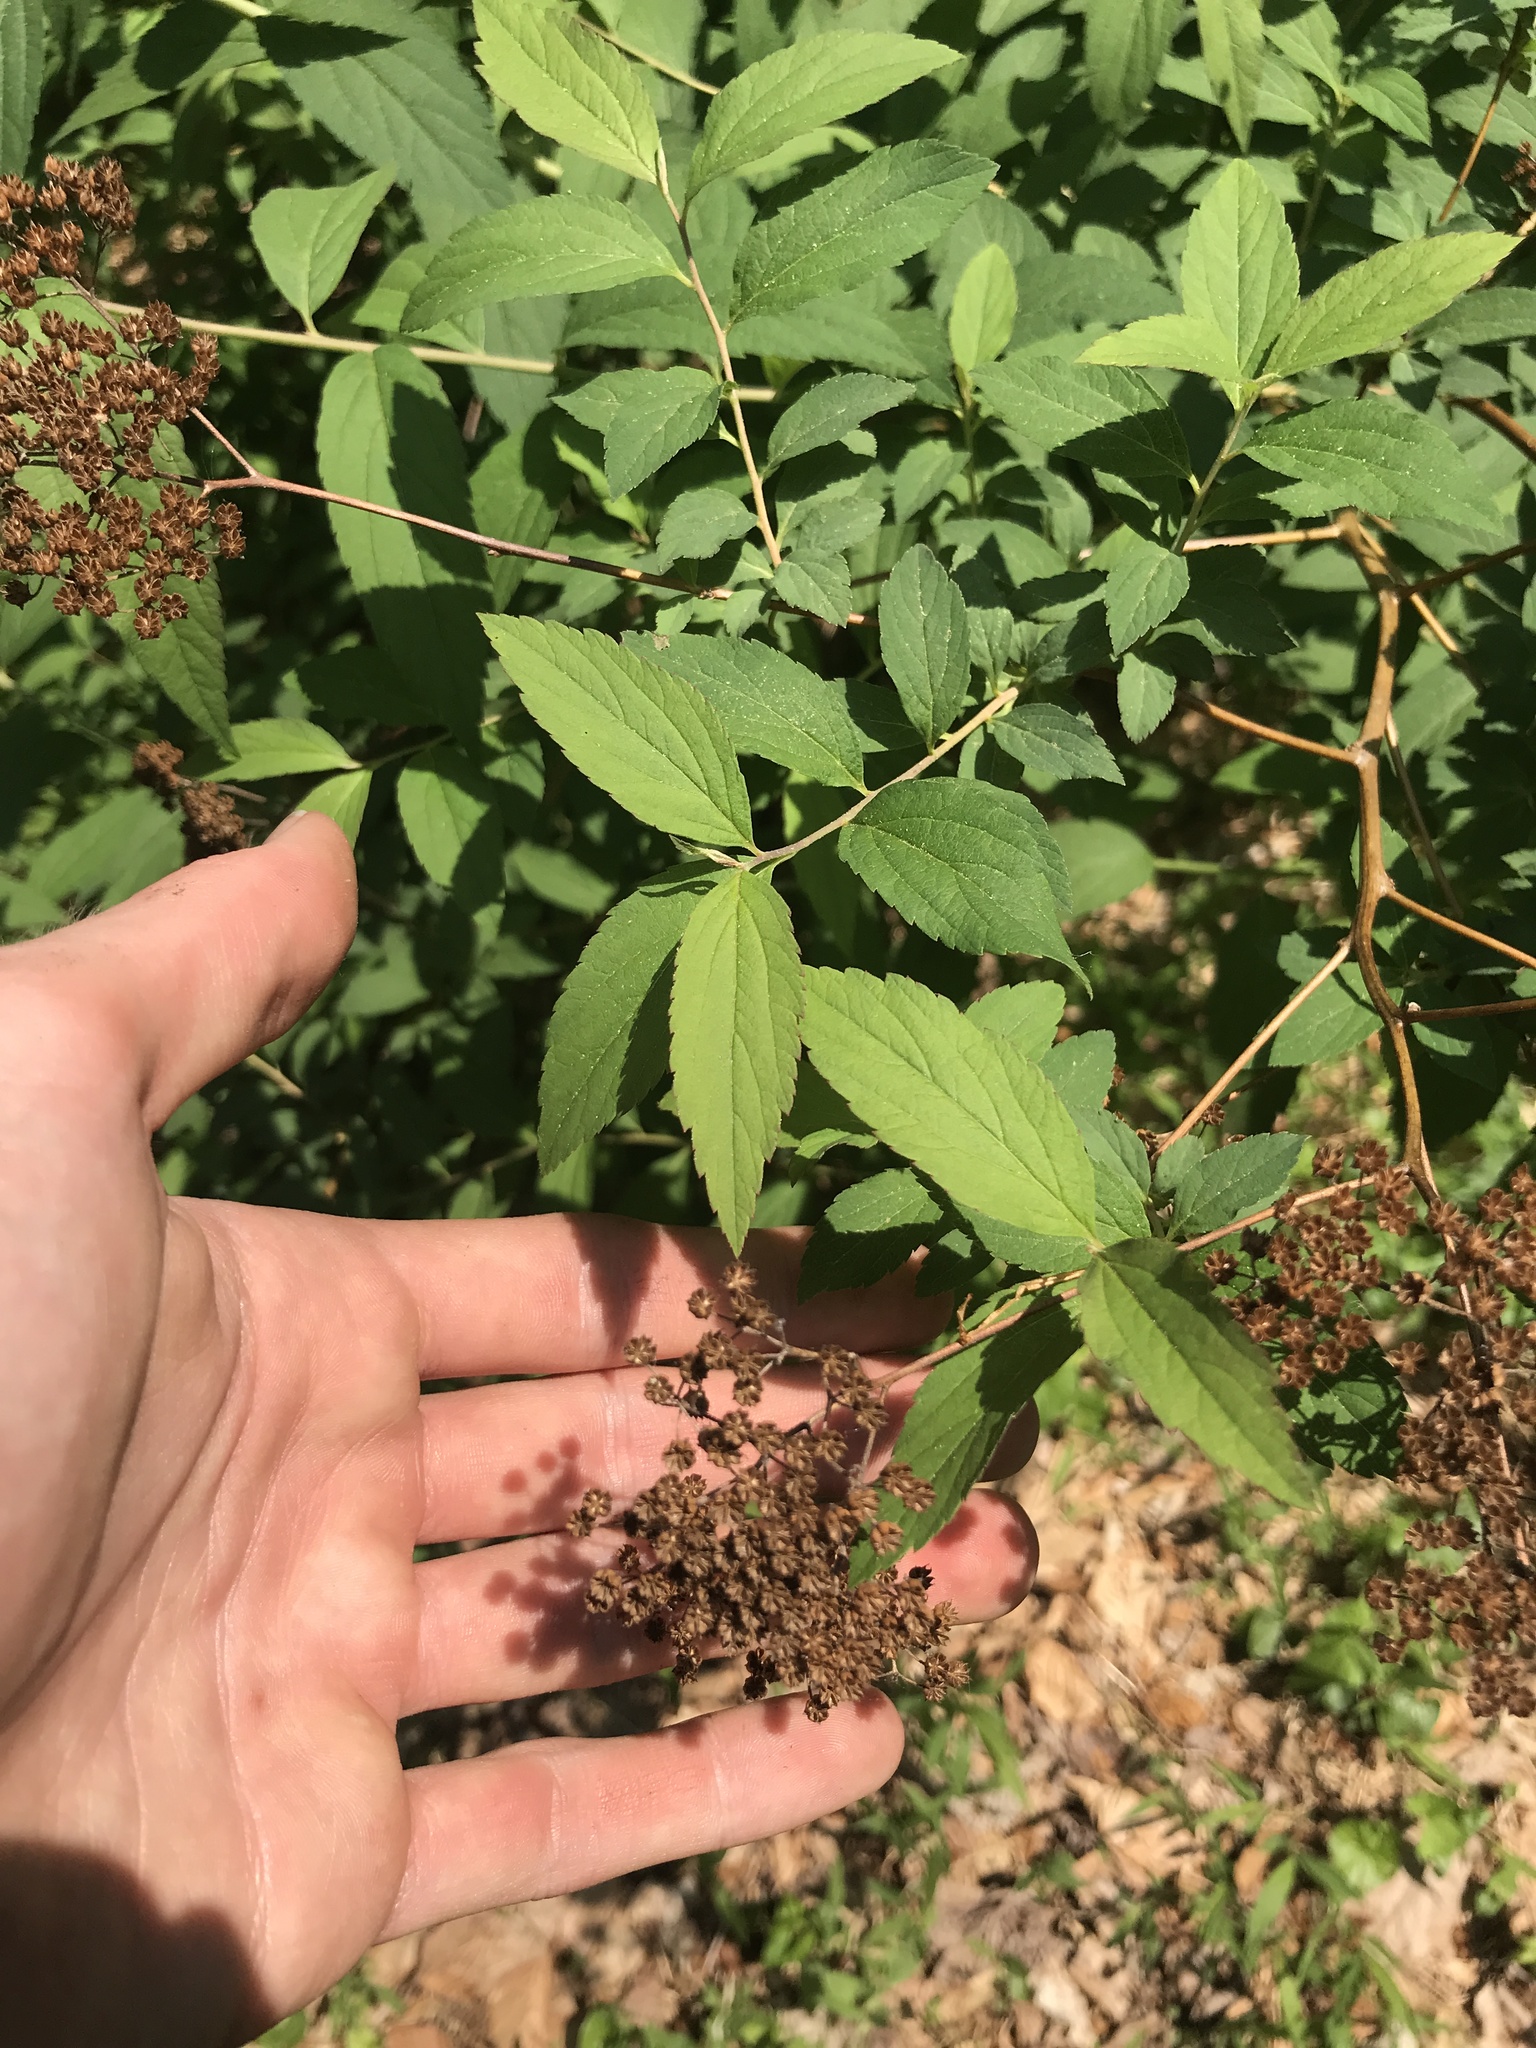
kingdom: Plantae
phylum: Tracheophyta
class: Magnoliopsida
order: Rosales
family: Rosaceae
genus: Spiraea
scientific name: Spiraea japonica
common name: Japanese spiraea
